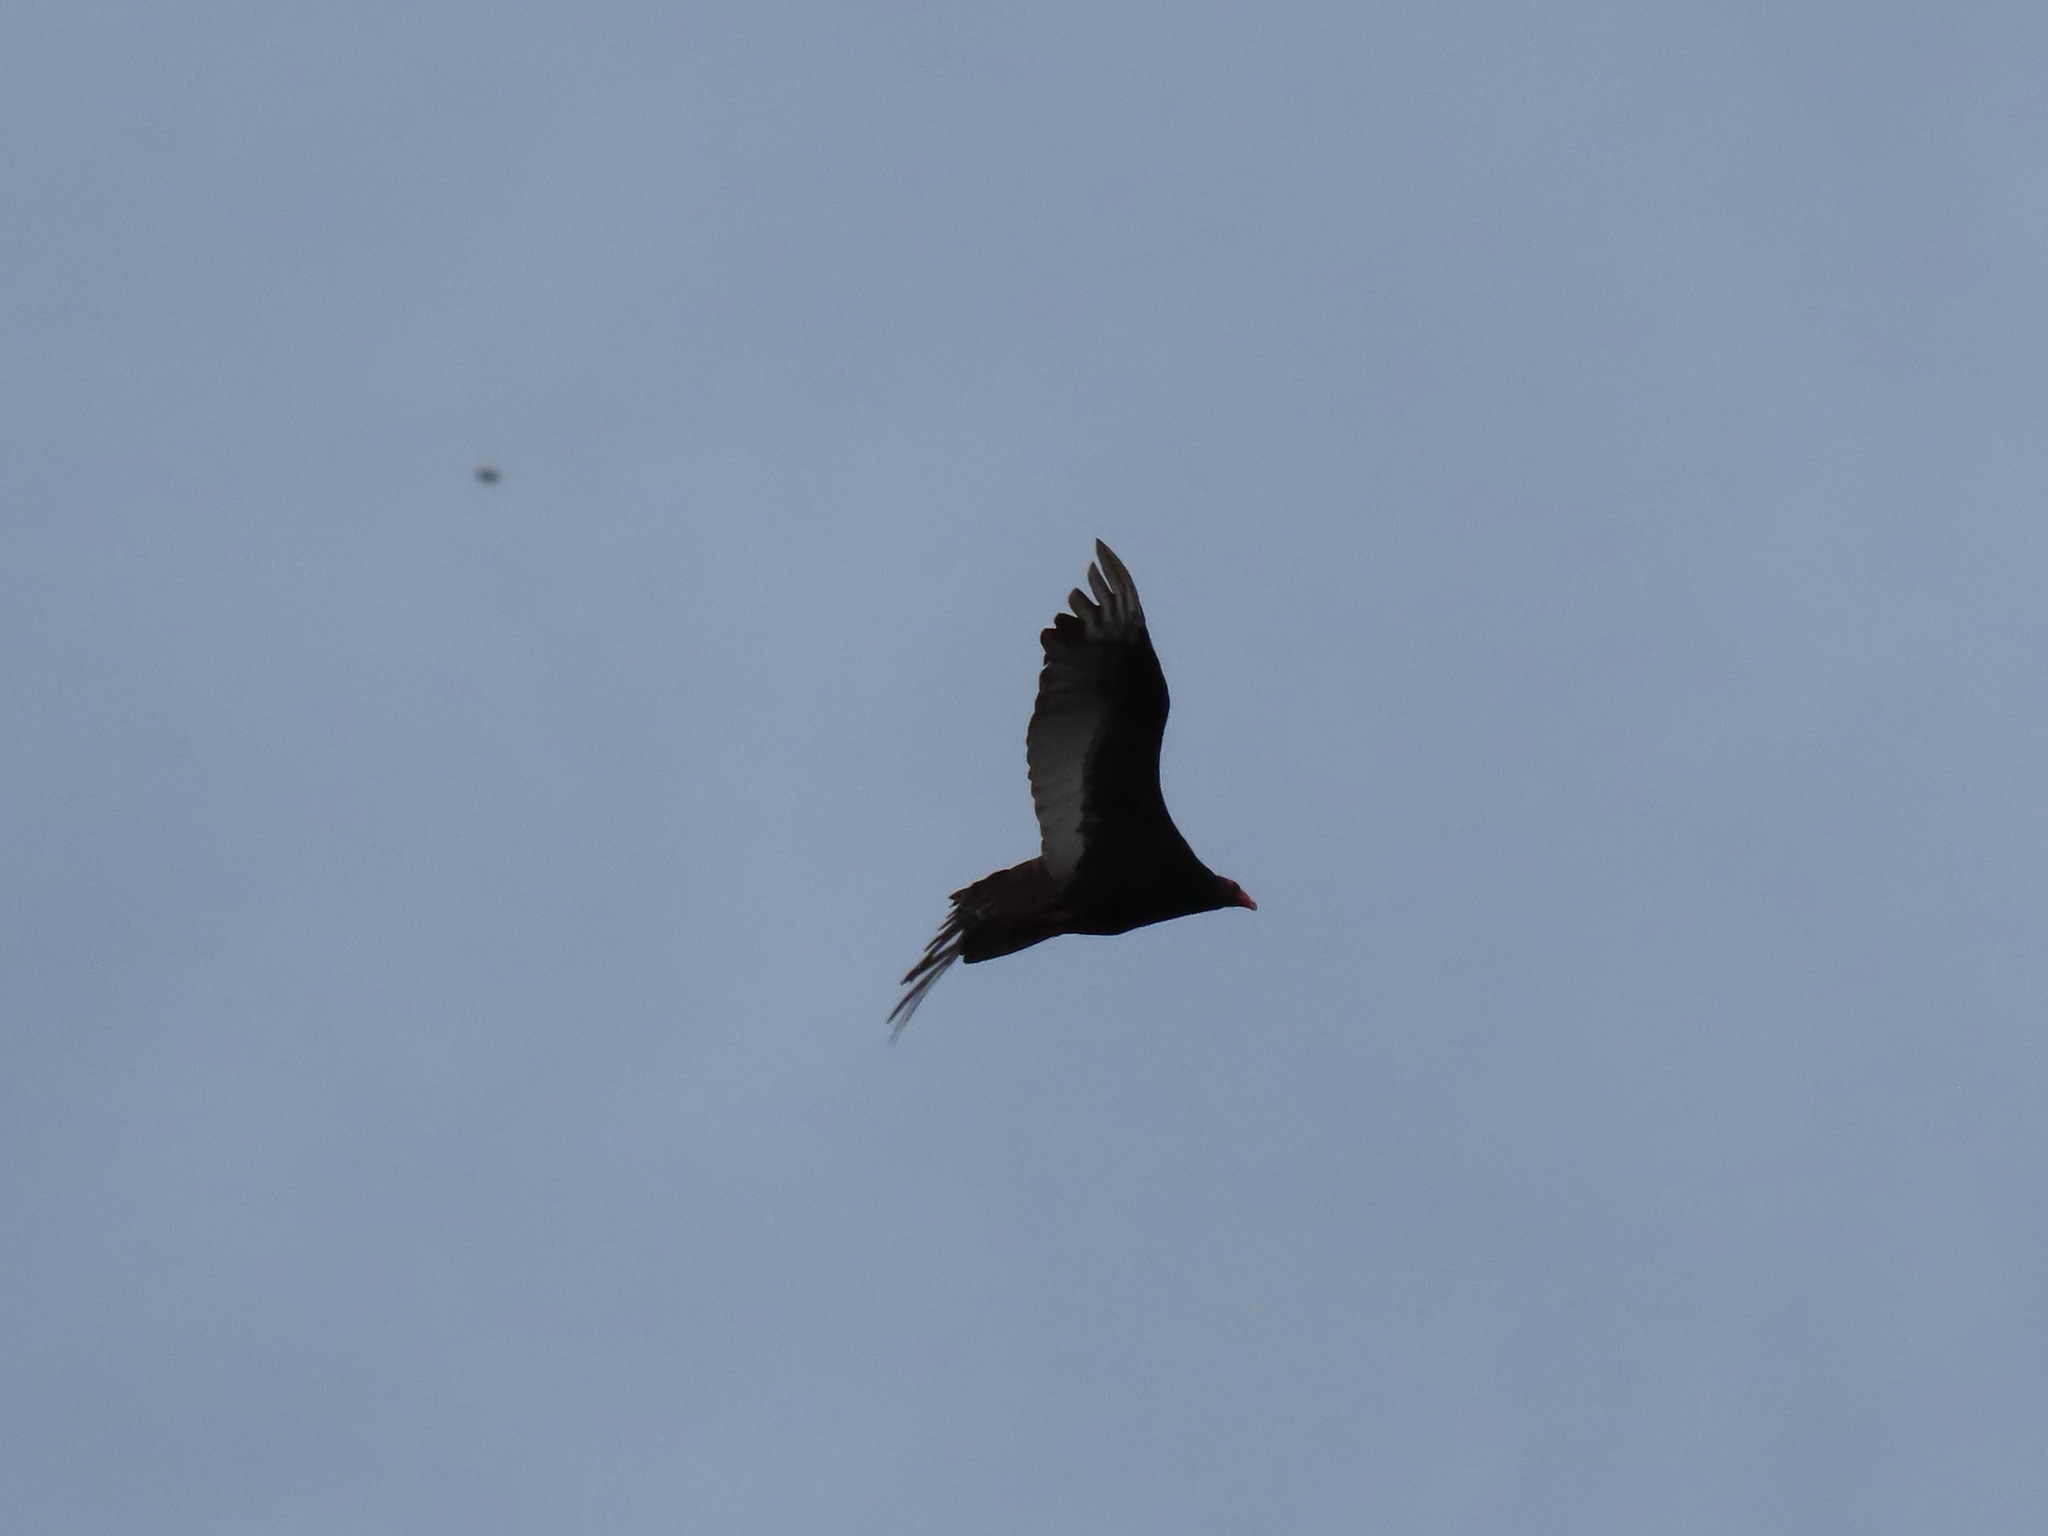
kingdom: Animalia
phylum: Chordata
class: Aves
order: Accipitriformes
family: Cathartidae
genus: Cathartes
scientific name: Cathartes aura
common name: Turkey vulture
